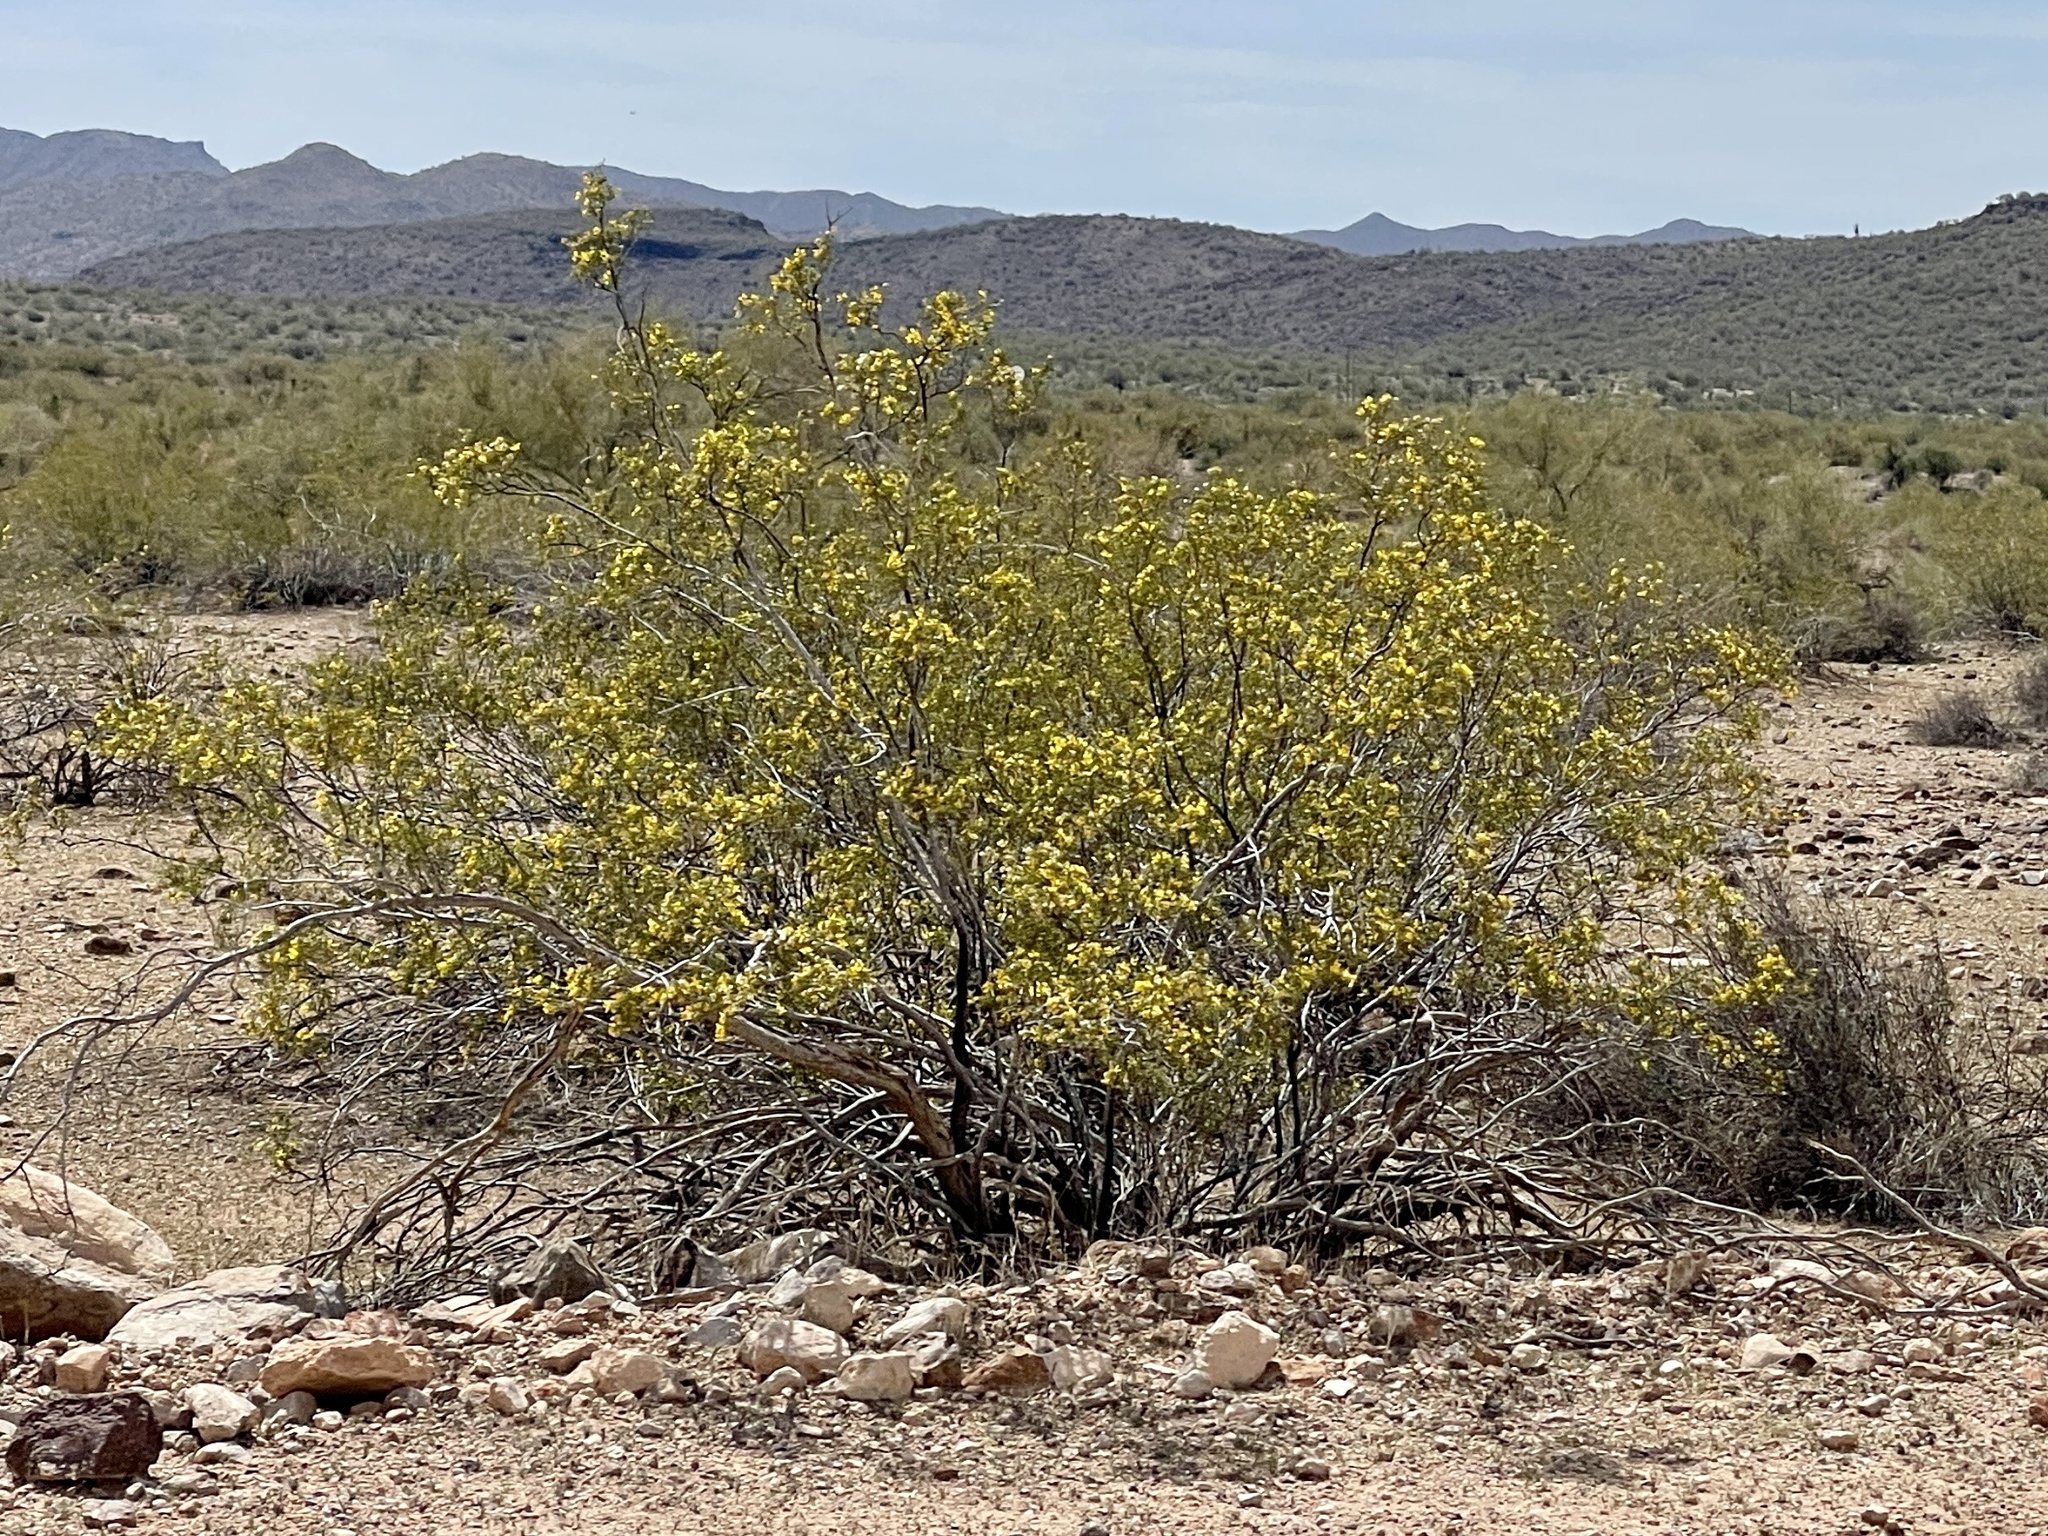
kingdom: Plantae
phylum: Tracheophyta
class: Magnoliopsida
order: Zygophyllales
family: Zygophyllaceae
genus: Larrea
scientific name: Larrea tridentata
